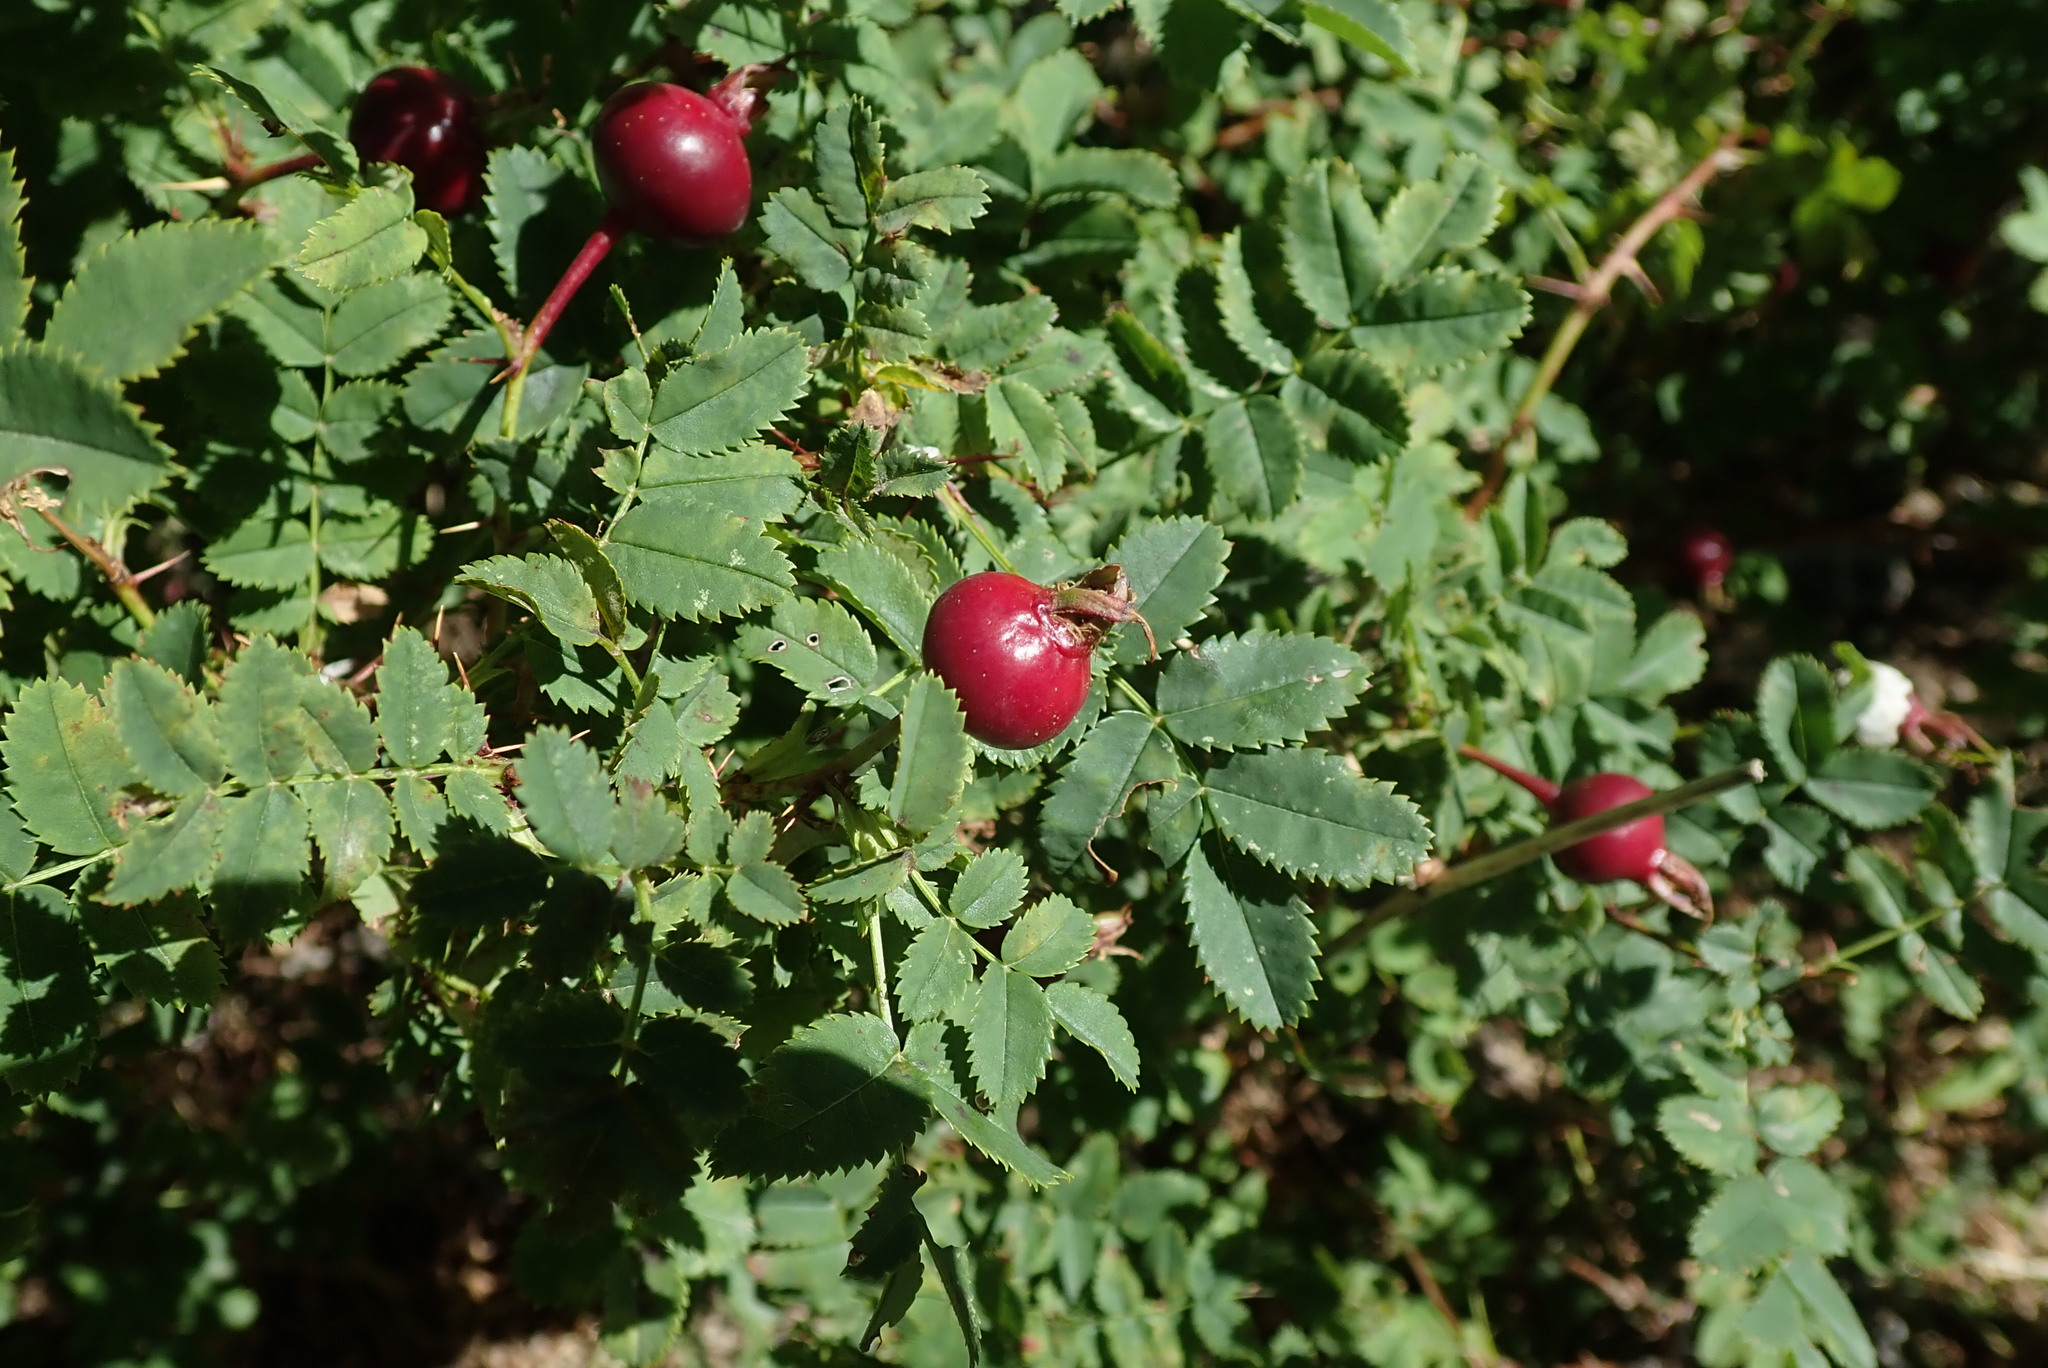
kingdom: Plantae
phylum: Tracheophyta
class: Magnoliopsida
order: Rosales
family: Rosaceae
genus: Rosa
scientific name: Rosa spinosissima
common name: Burnet rose
